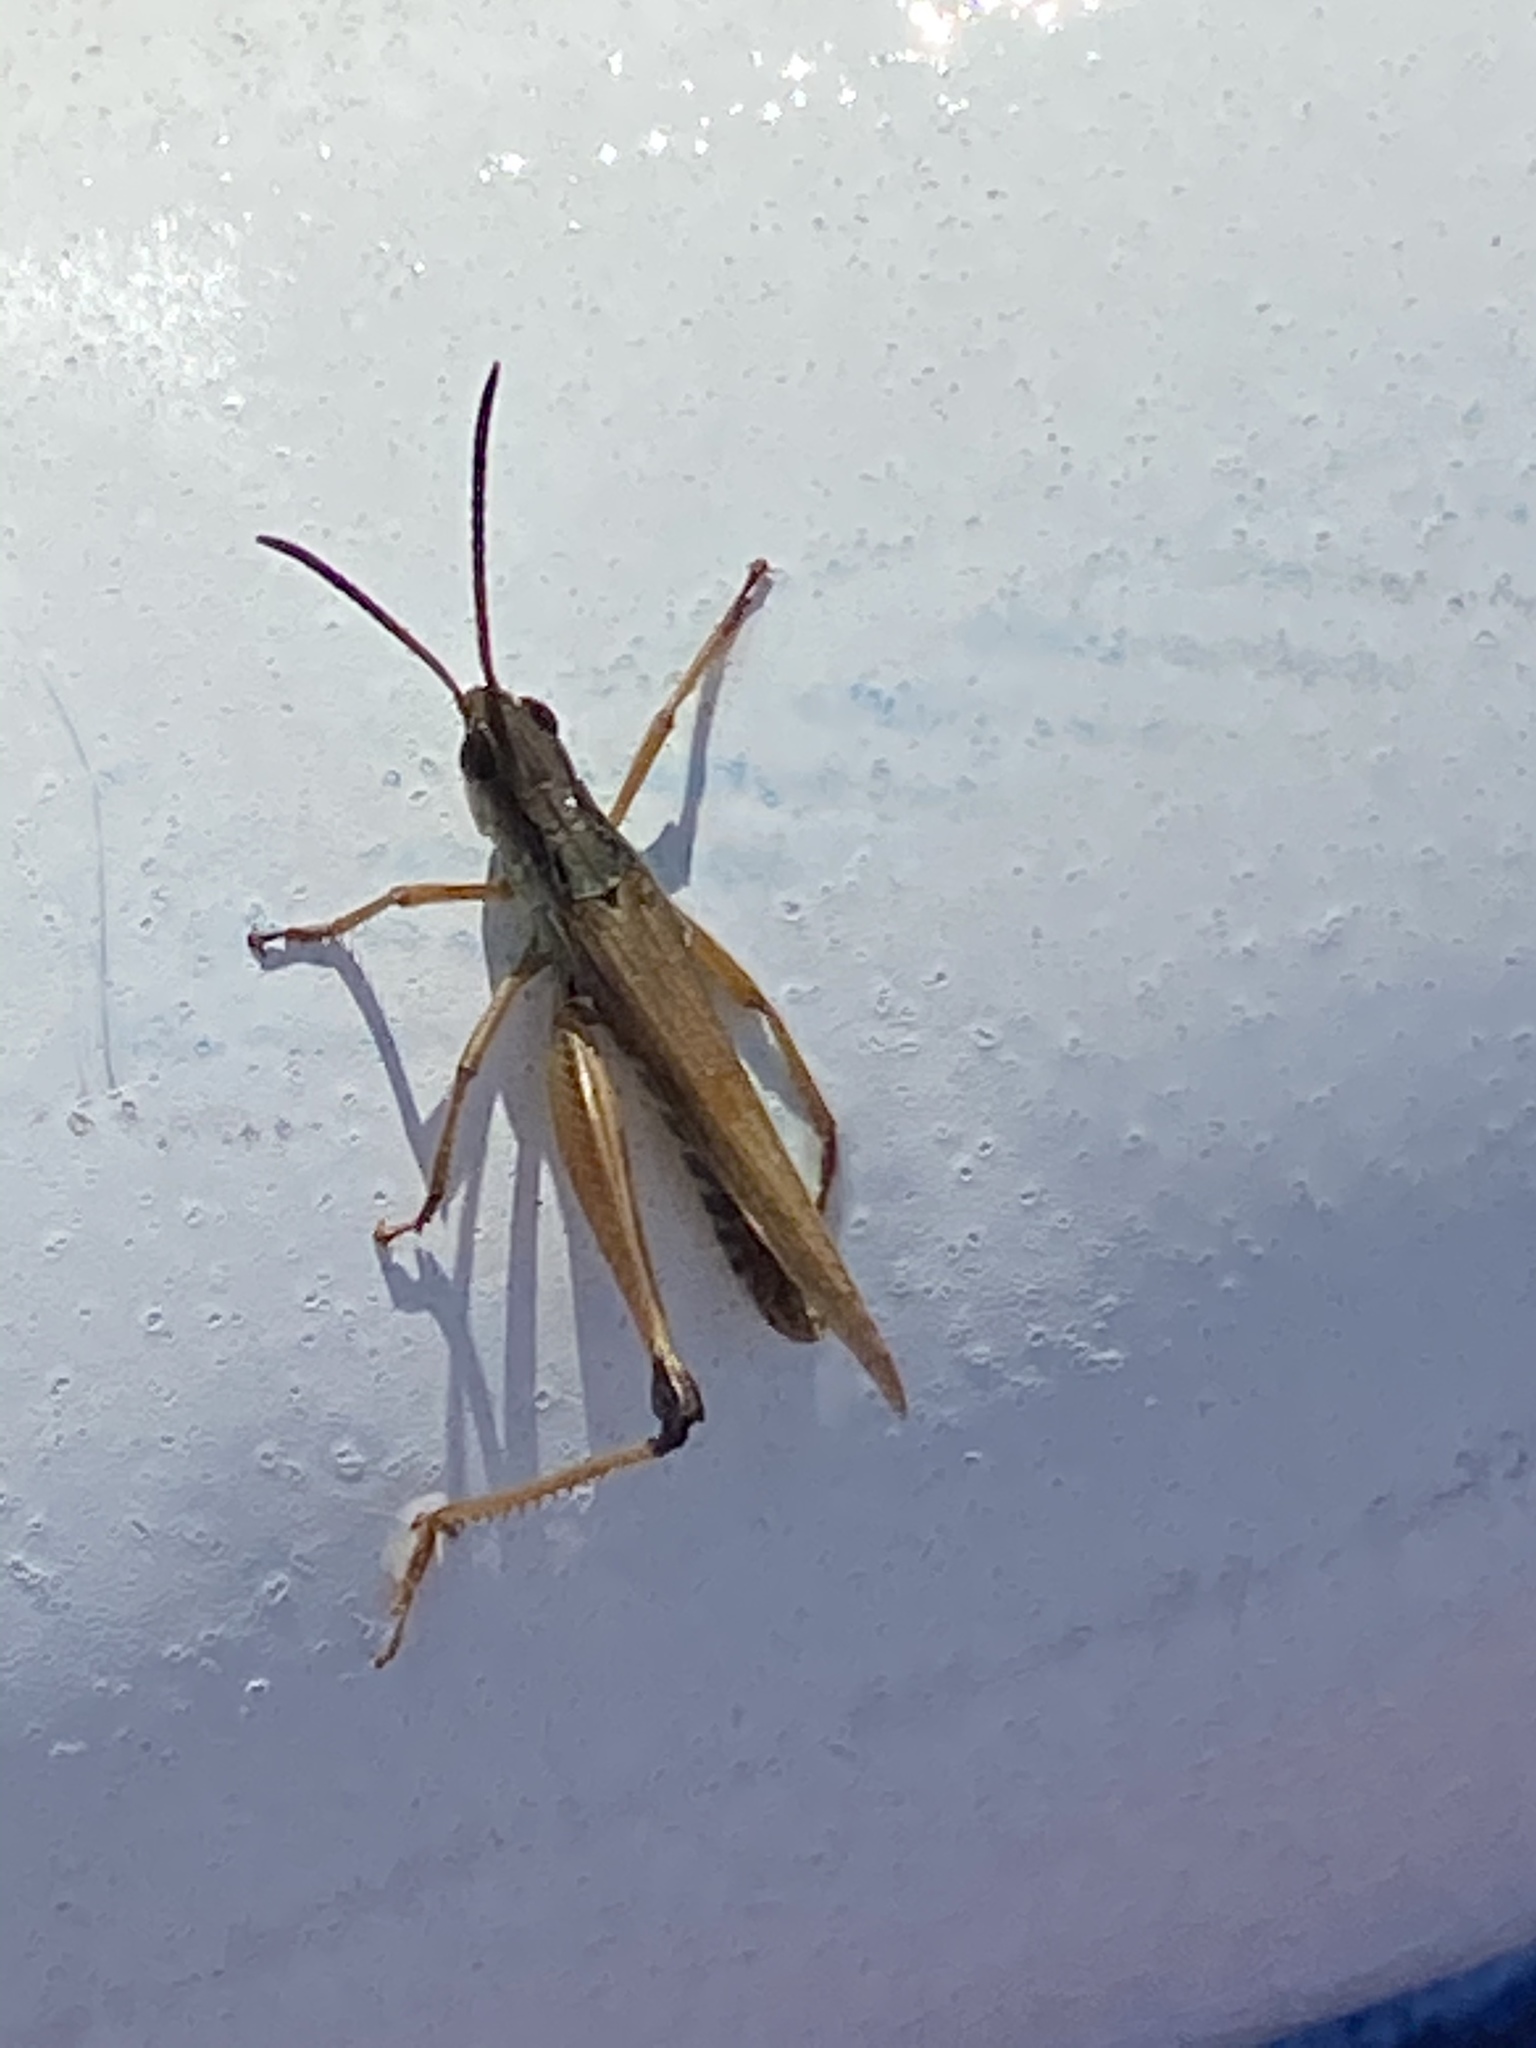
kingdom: Animalia
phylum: Arthropoda
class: Insecta
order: Orthoptera
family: Acrididae
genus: Pseudochorthippus
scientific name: Pseudochorthippus curtipennis
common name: Marsh meadow grasshopper
